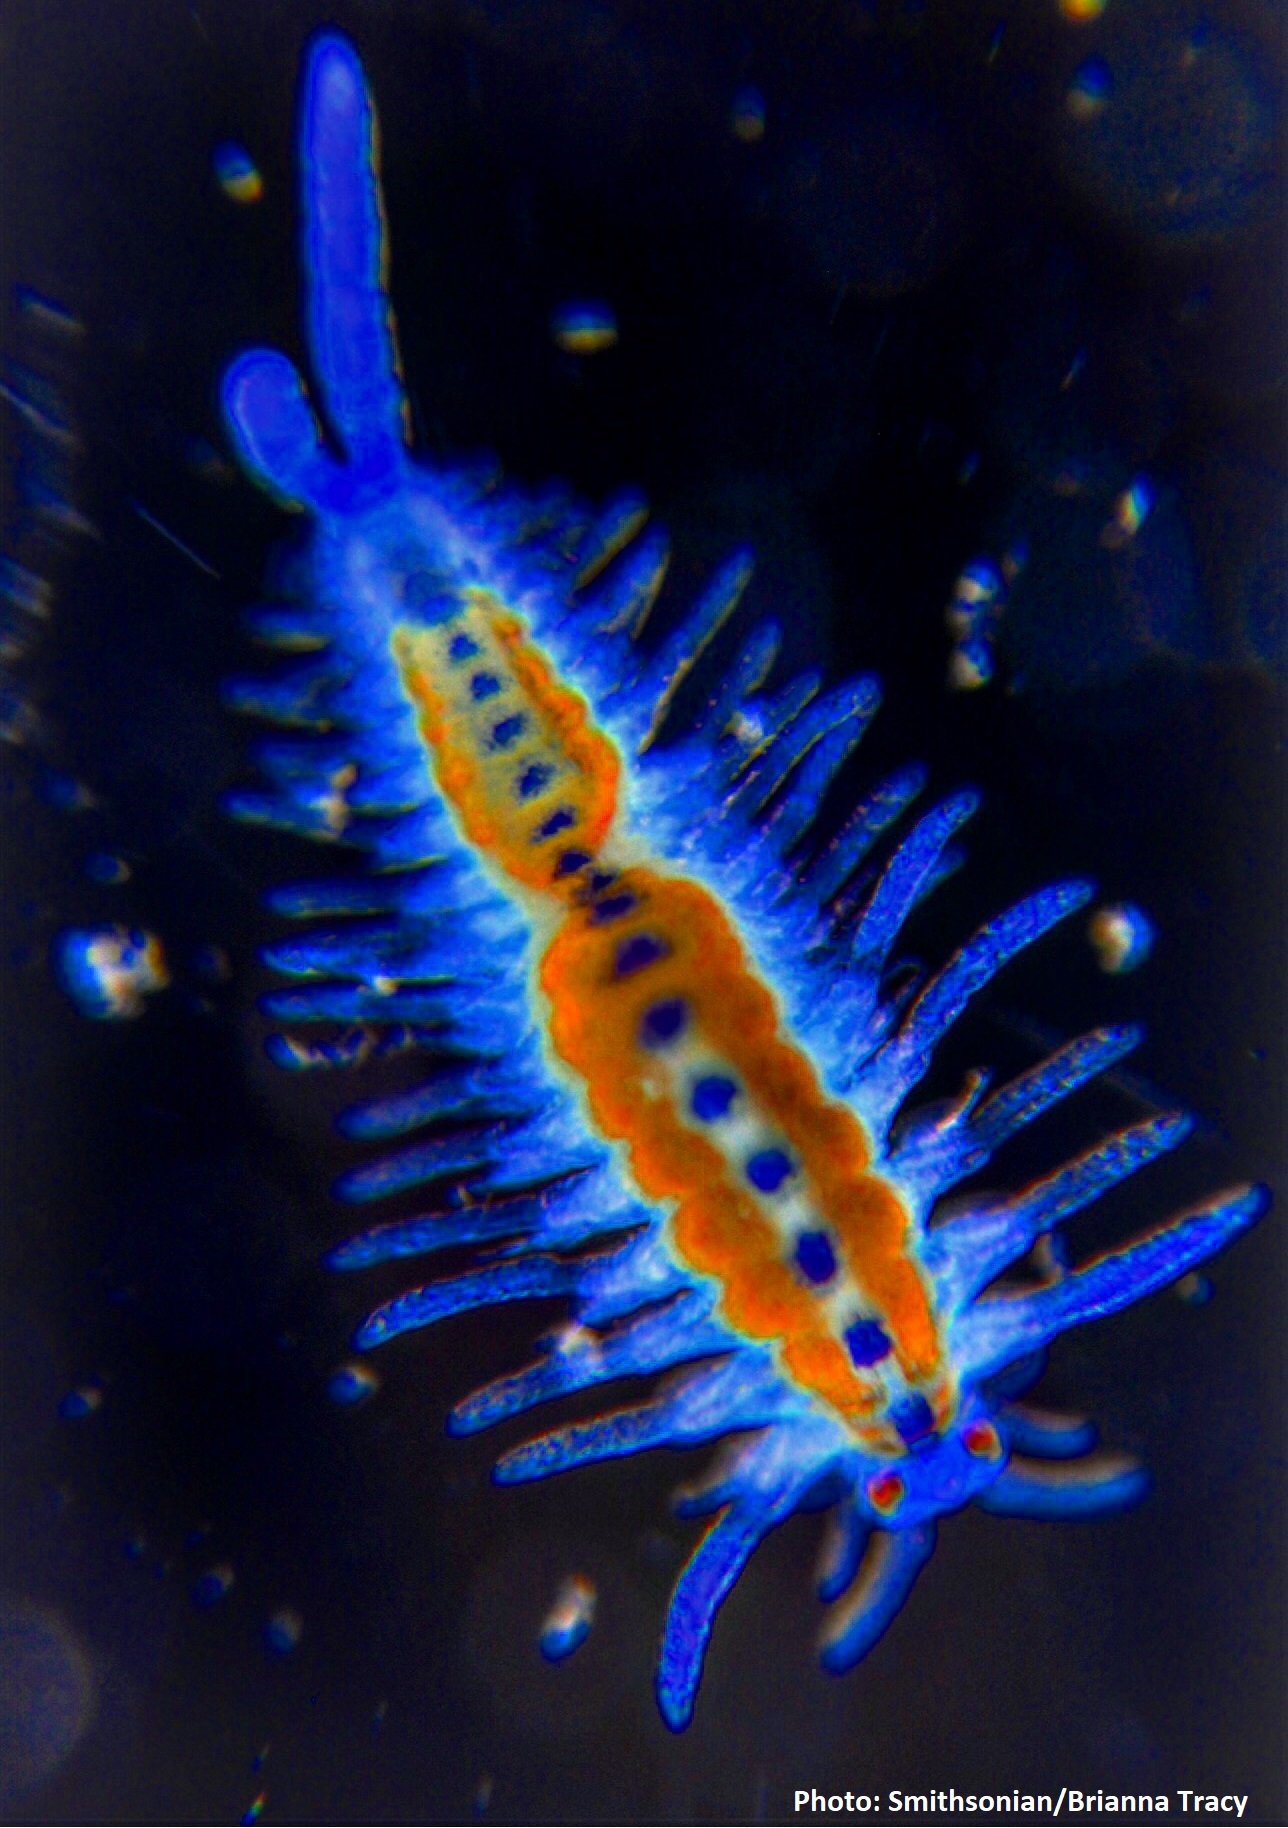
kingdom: Animalia
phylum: Annelida
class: Polychaeta
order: Phyllodocida
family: Syllidae
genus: Myrianida
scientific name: Myrianida pachycera
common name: Syllid polychaete
